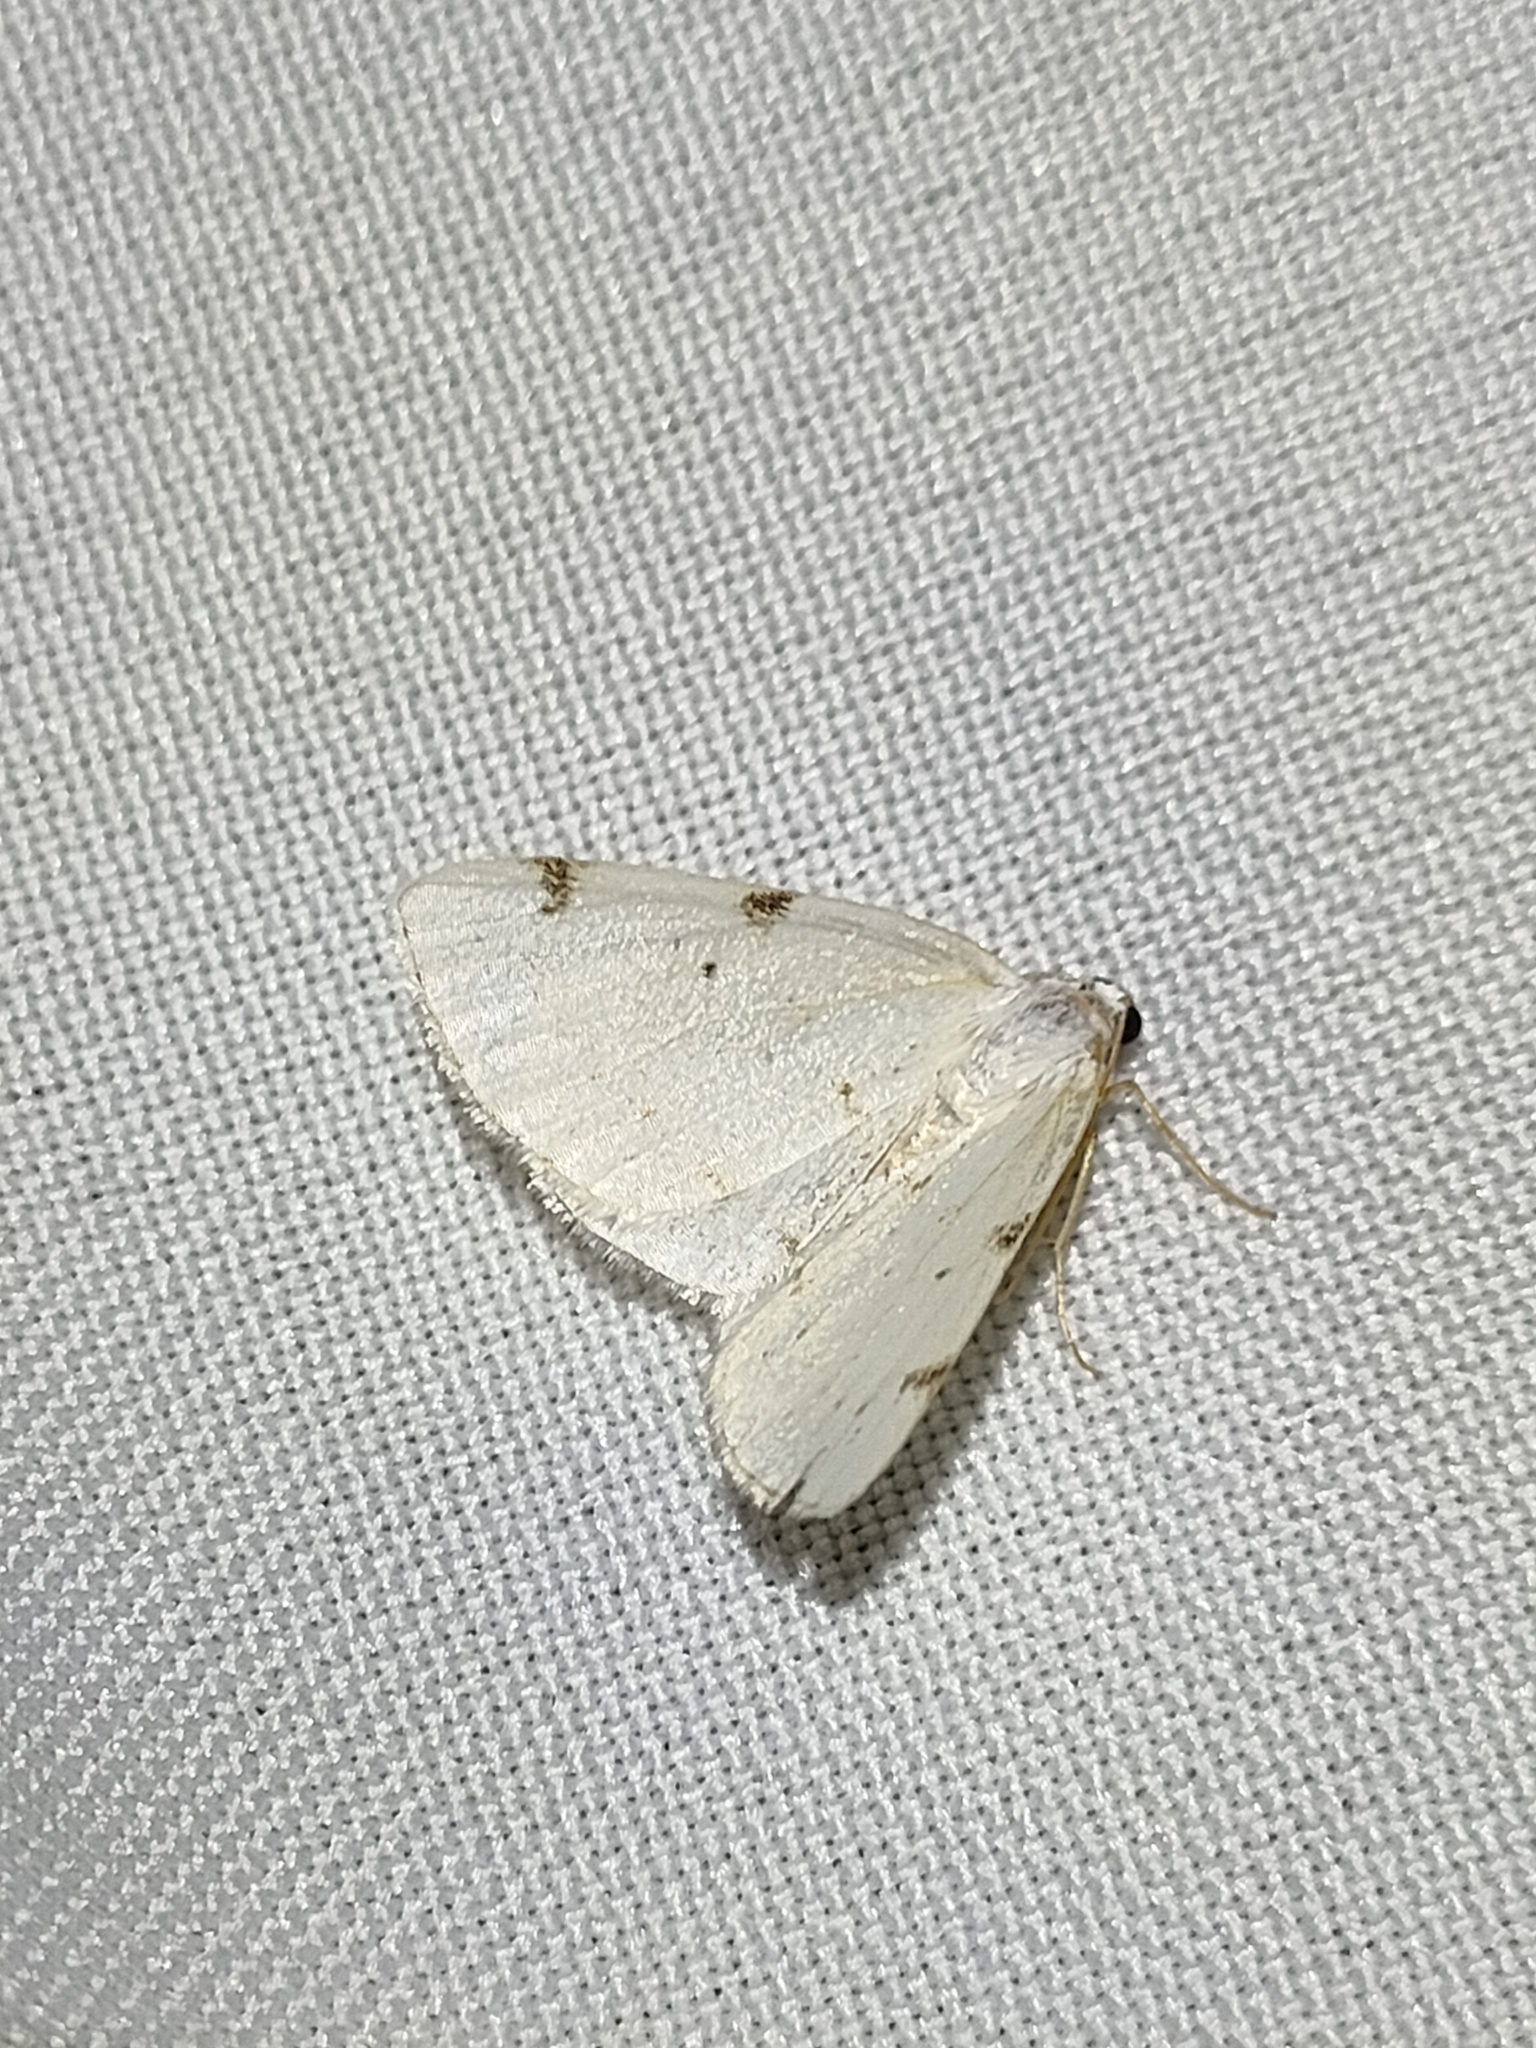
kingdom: Animalia
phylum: Arthropoda
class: Insecta
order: Lepidoptera
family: Geometridae
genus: Lomographa
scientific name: Lomographa bimaculata
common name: White-pinion spotted
